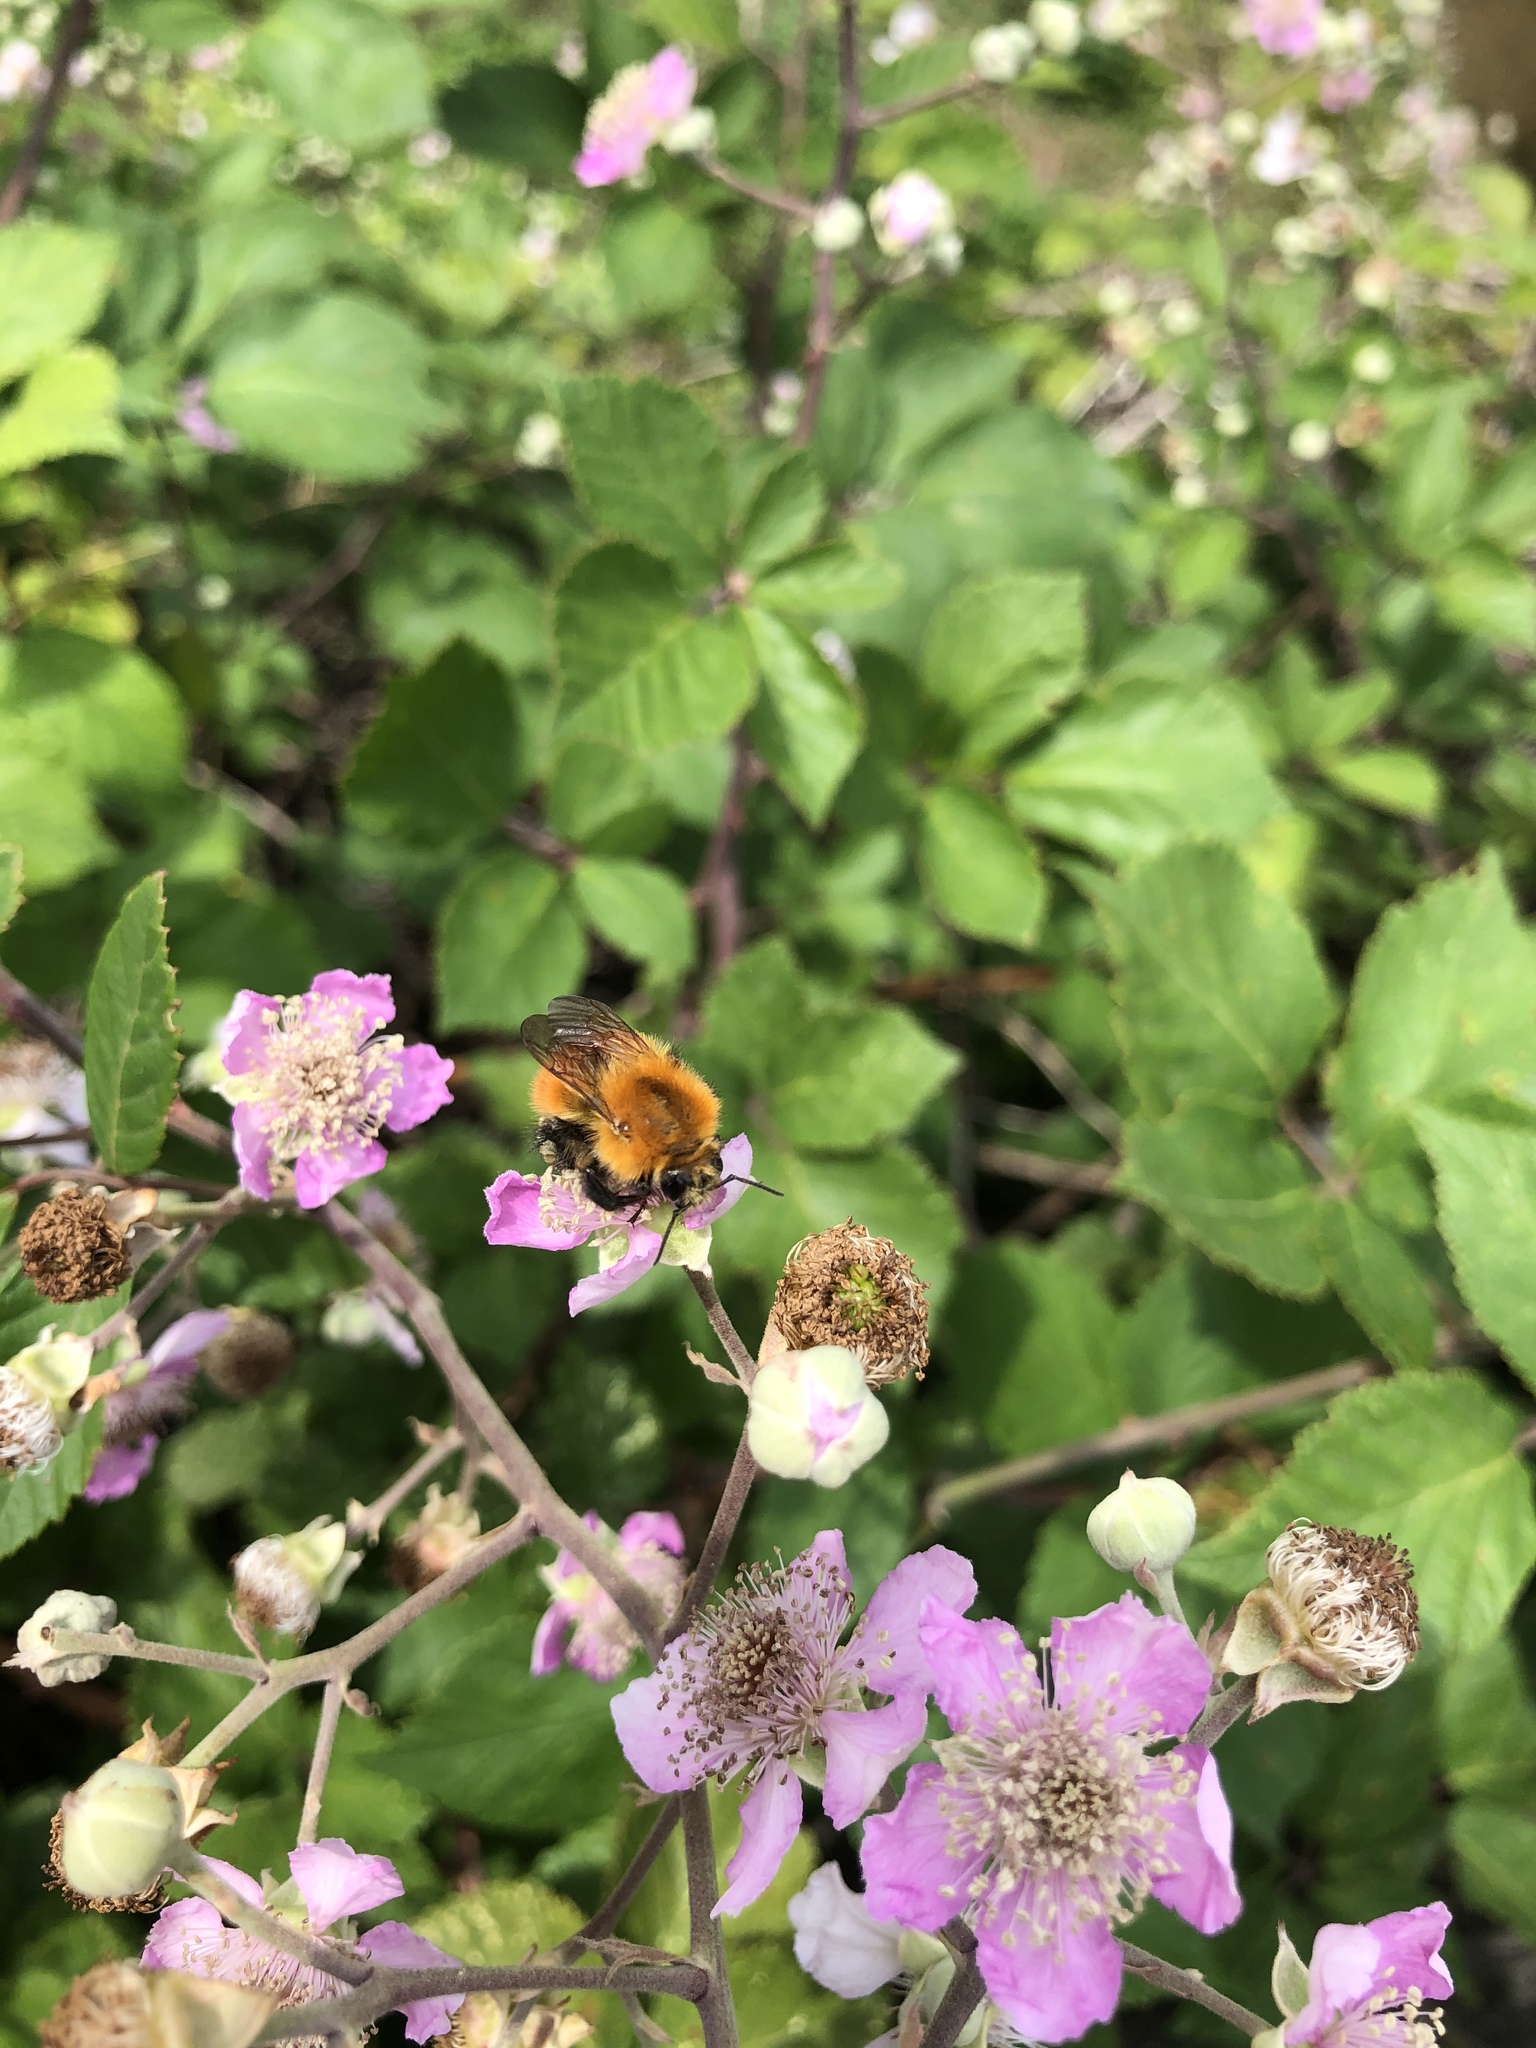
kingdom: Animalia
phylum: Arthropoda
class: Insecta
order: Hymenoptera
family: Apidae
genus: Bombus
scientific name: Bombus pascuorum
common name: Common carder bee
